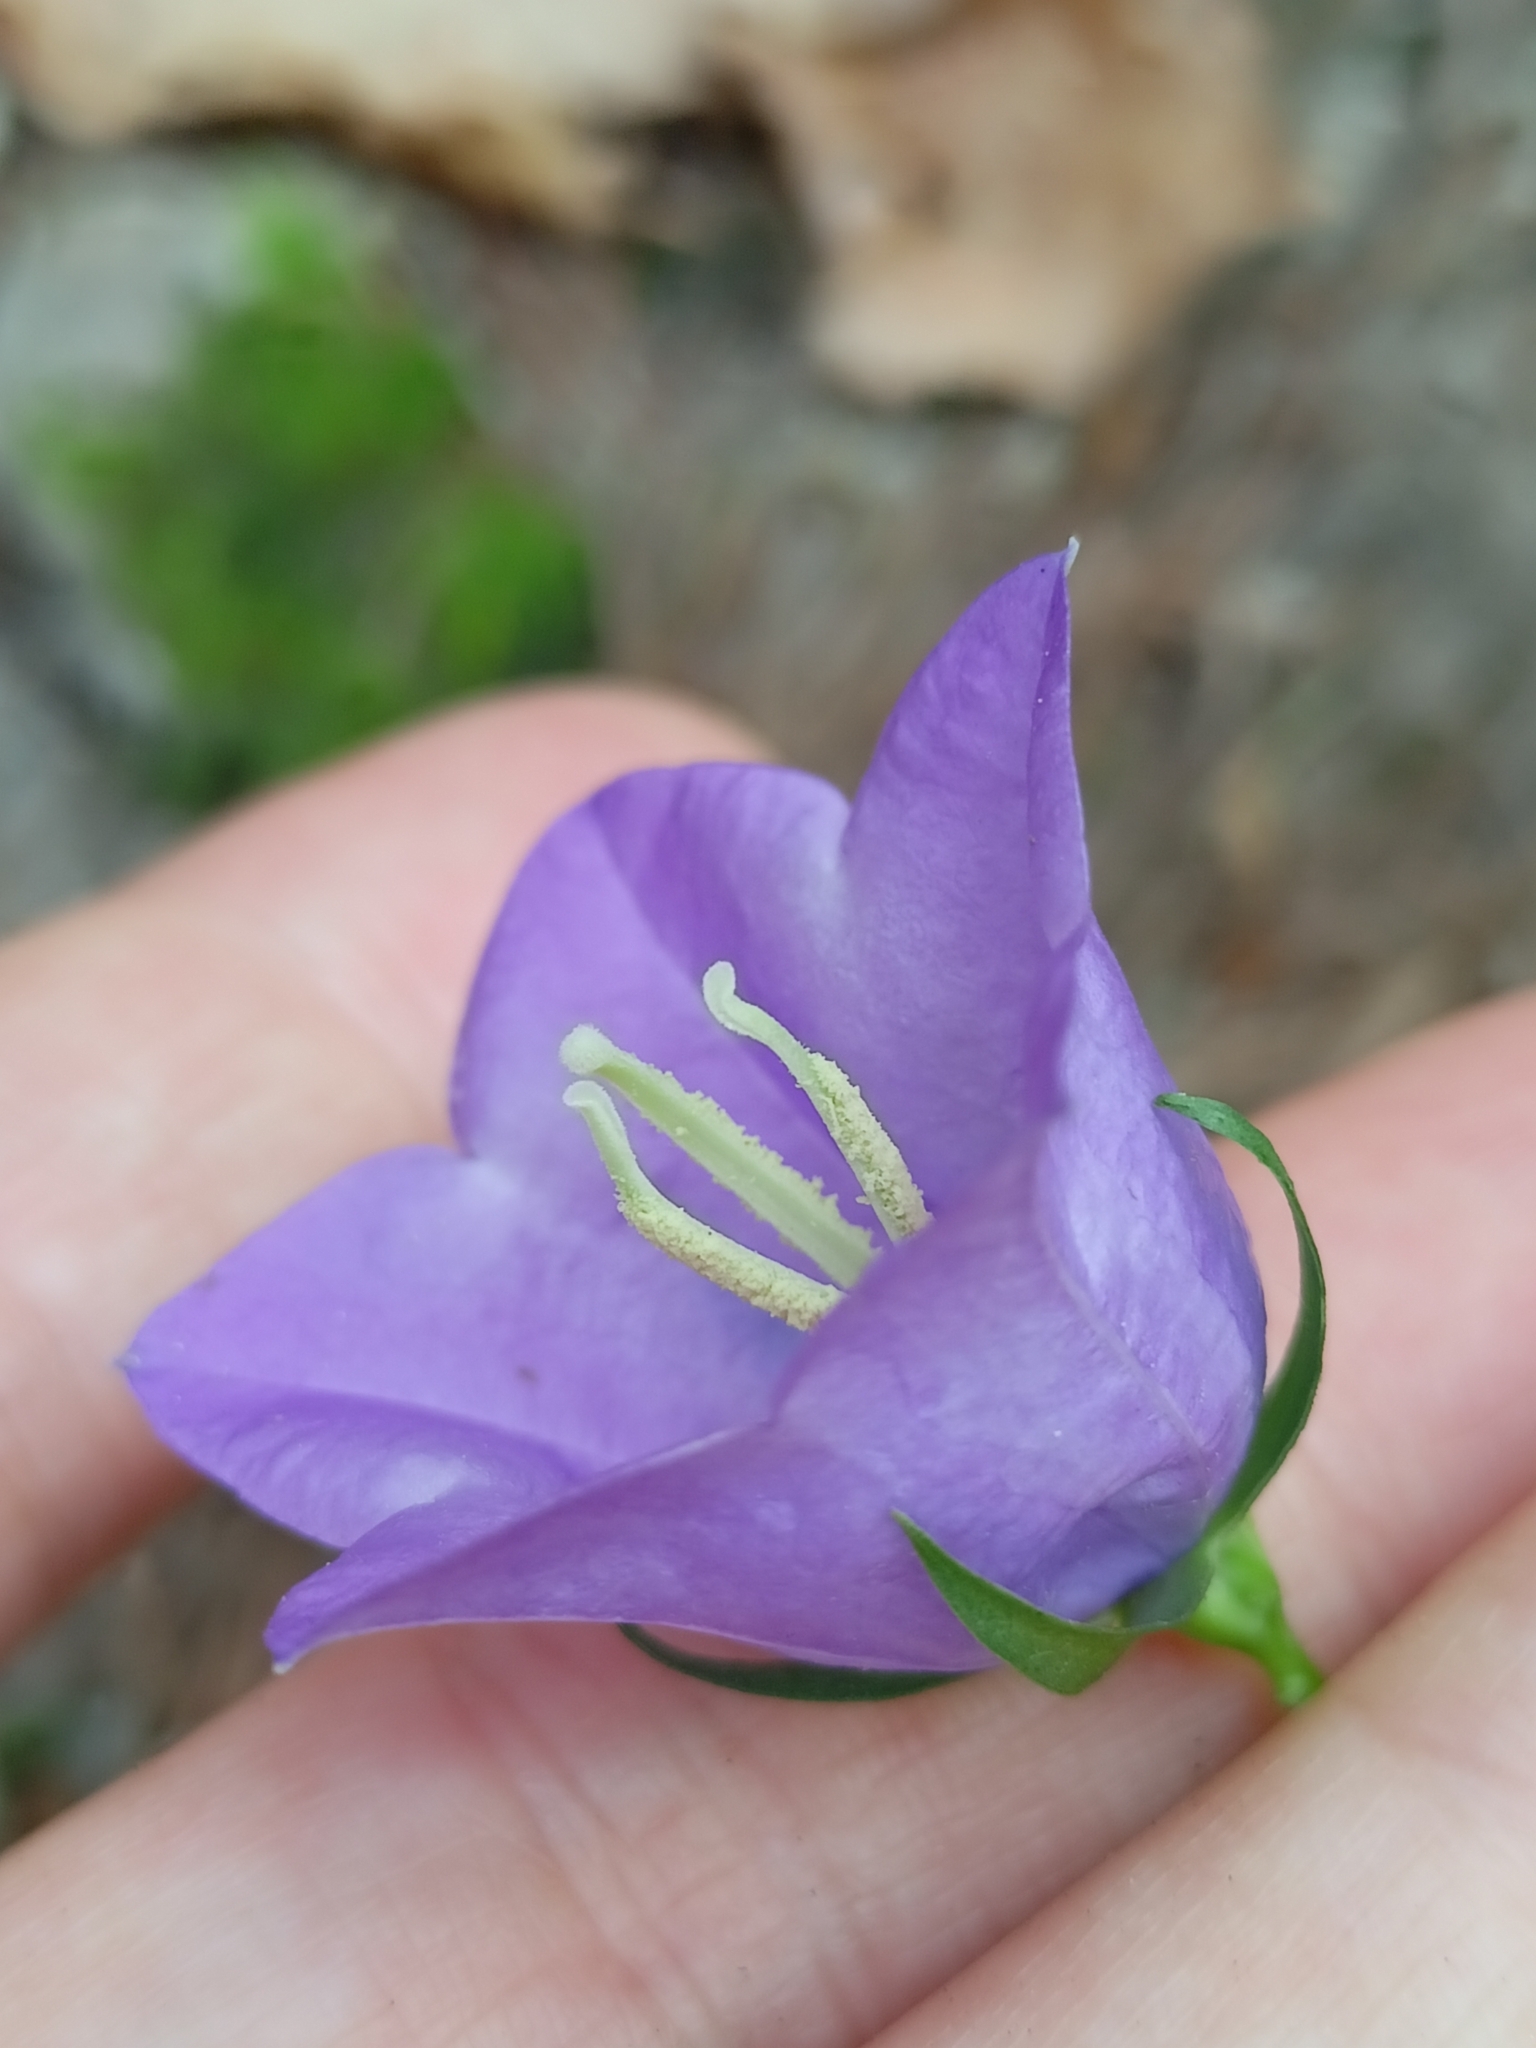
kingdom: Plantae
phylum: Tracheophyta
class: Magnoliopsida
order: Asterales
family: Campanulaceae
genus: Campanula
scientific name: Campanula persicifolia
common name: Peach-leaved bellflower
